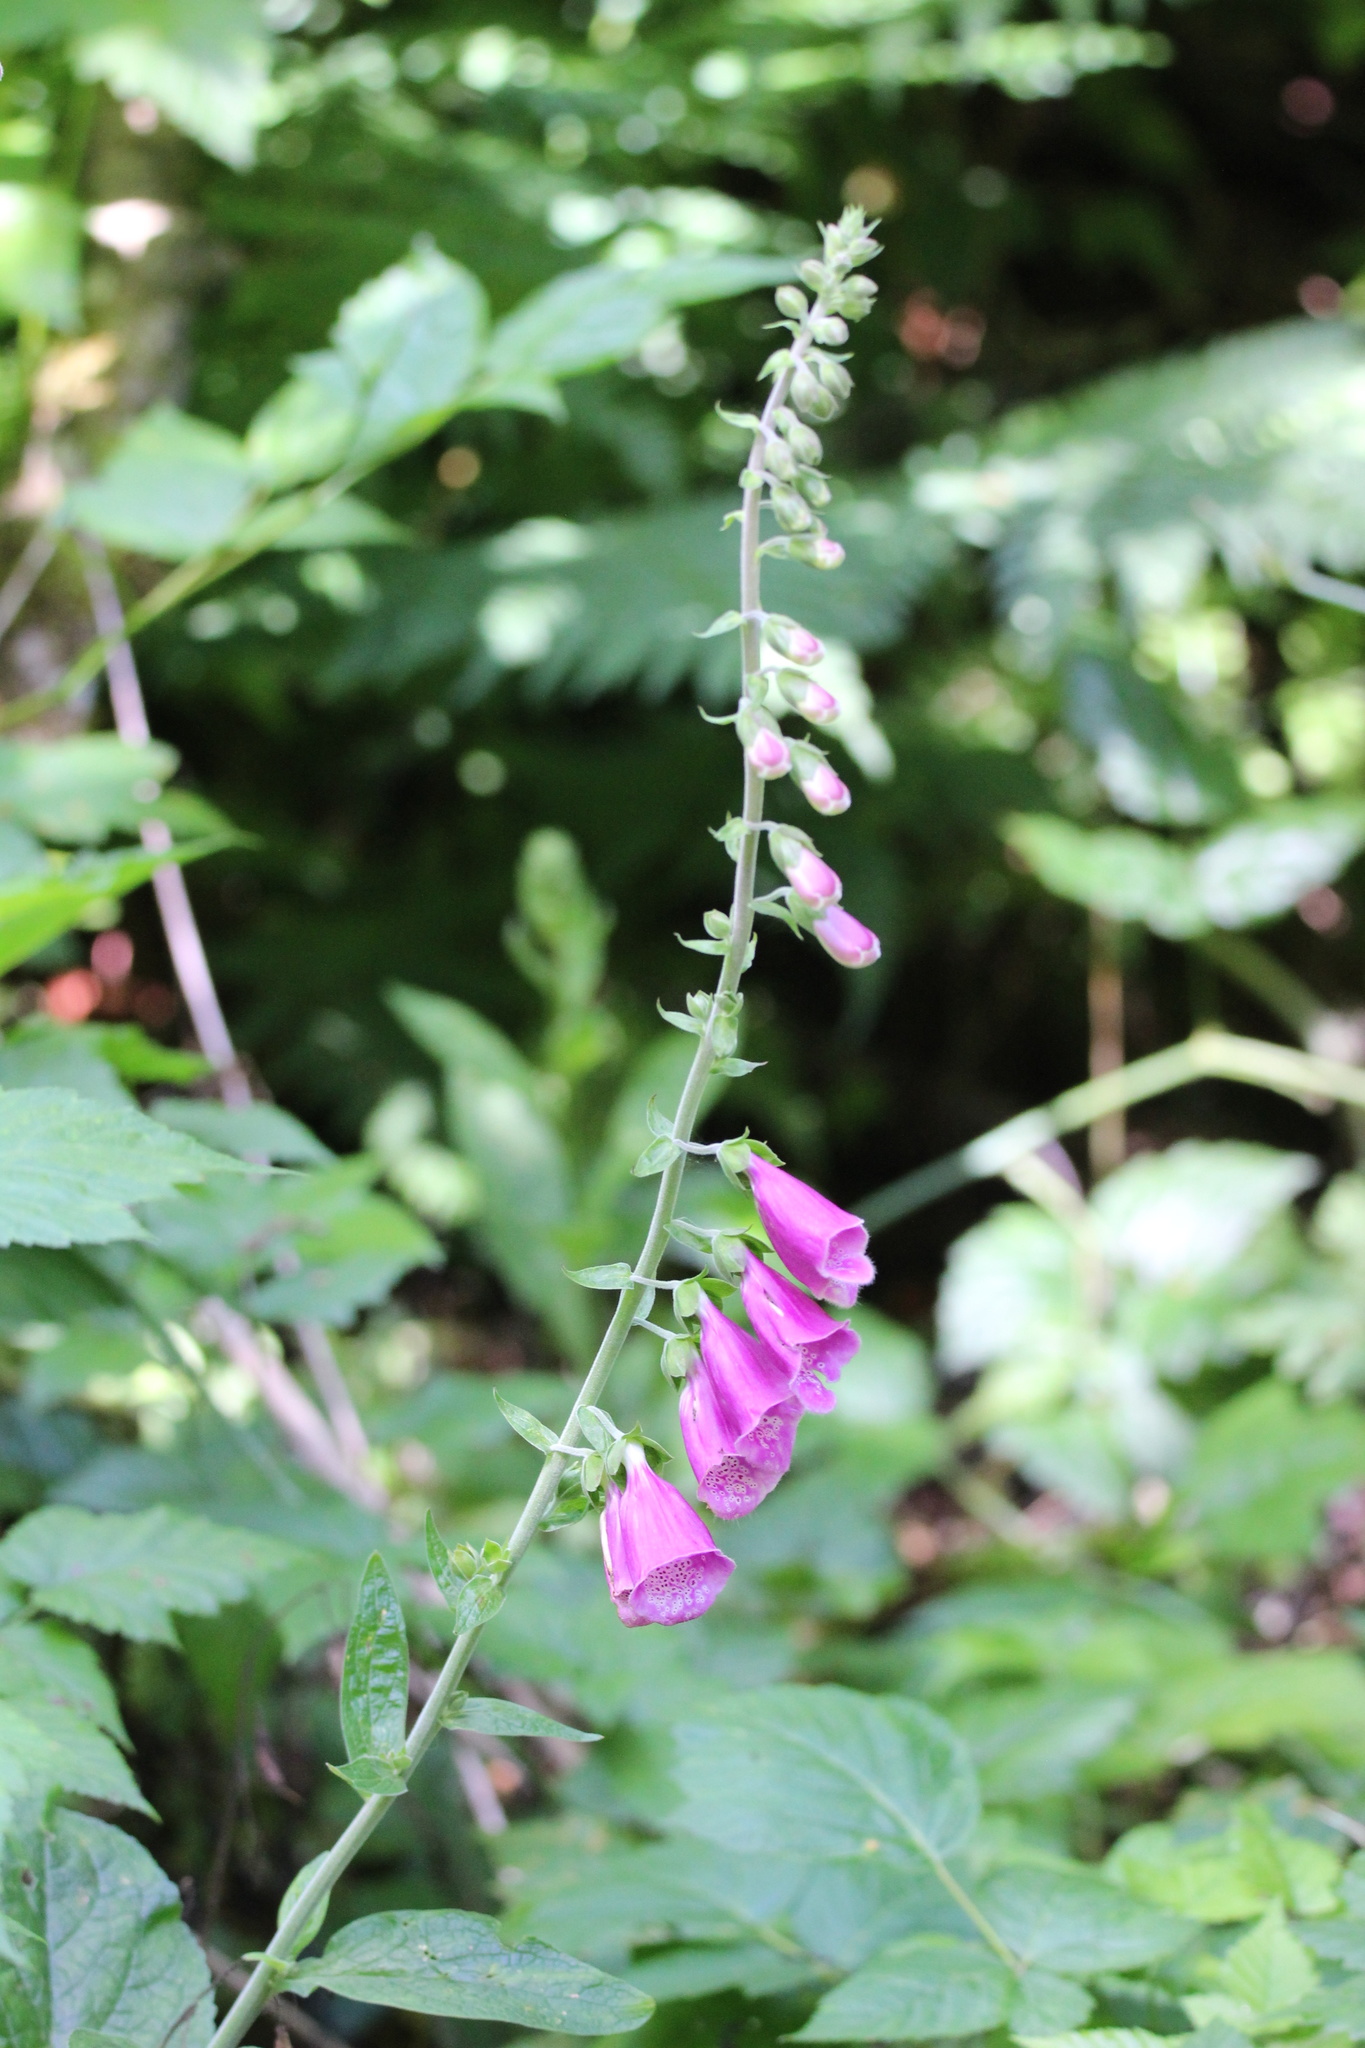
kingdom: Plantae
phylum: Tracheophyta
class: Magnoliopsida
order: Lamiales
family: Plantaginaceae
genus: Digitalis
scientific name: Digitalis purpurea
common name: Foxglove
